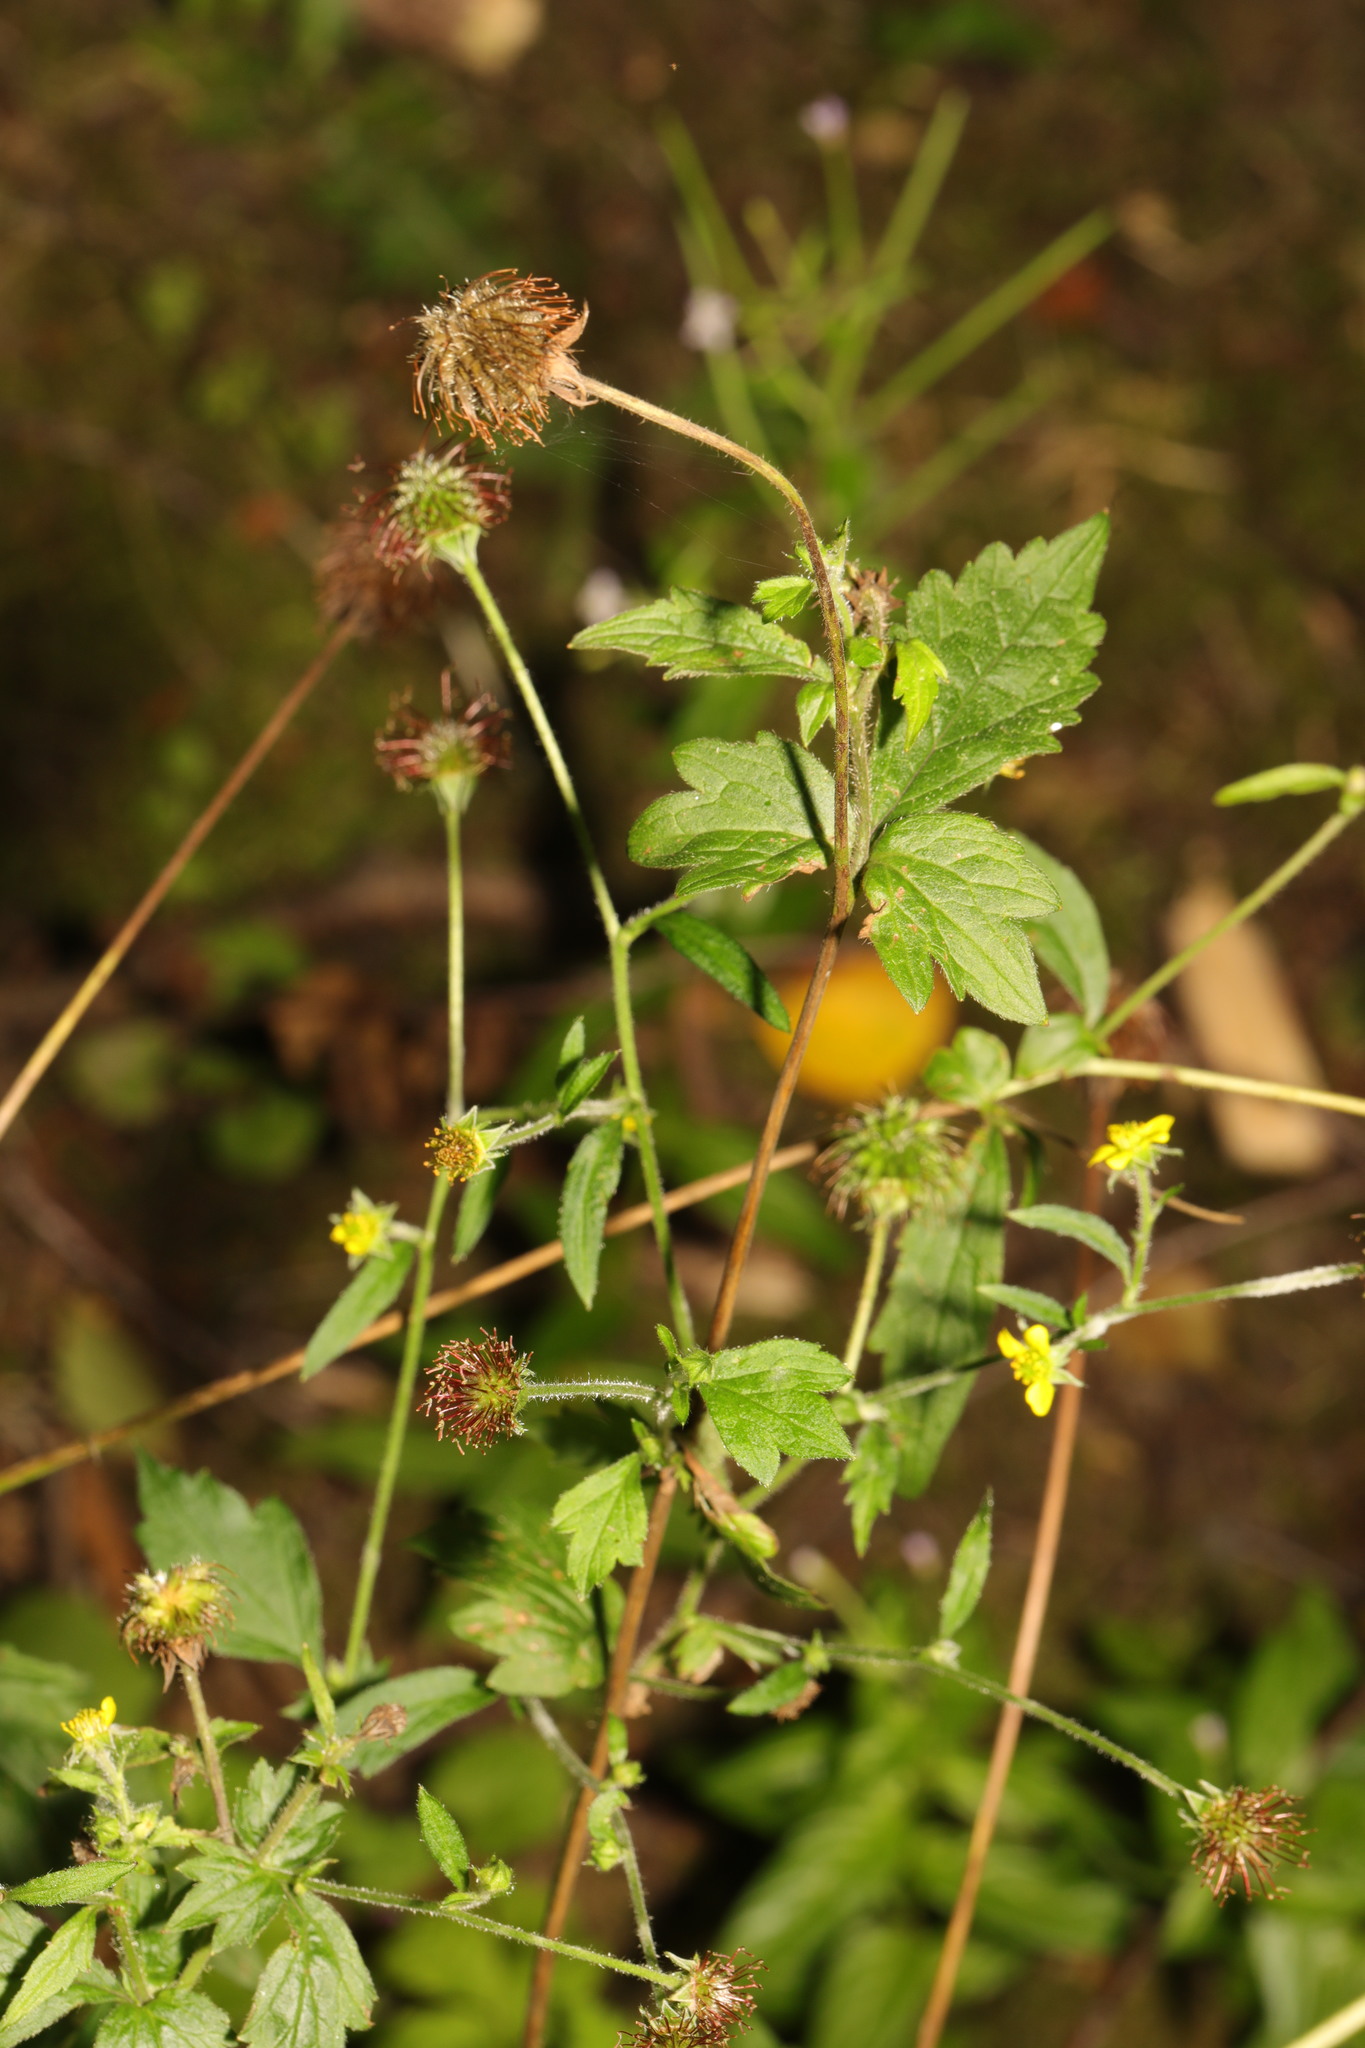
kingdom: Plantae
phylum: Tracheophyta
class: Magnoliopsida
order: Rosales
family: Rosaceae
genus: Geum
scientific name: Geum urbanum
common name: Wood avens
